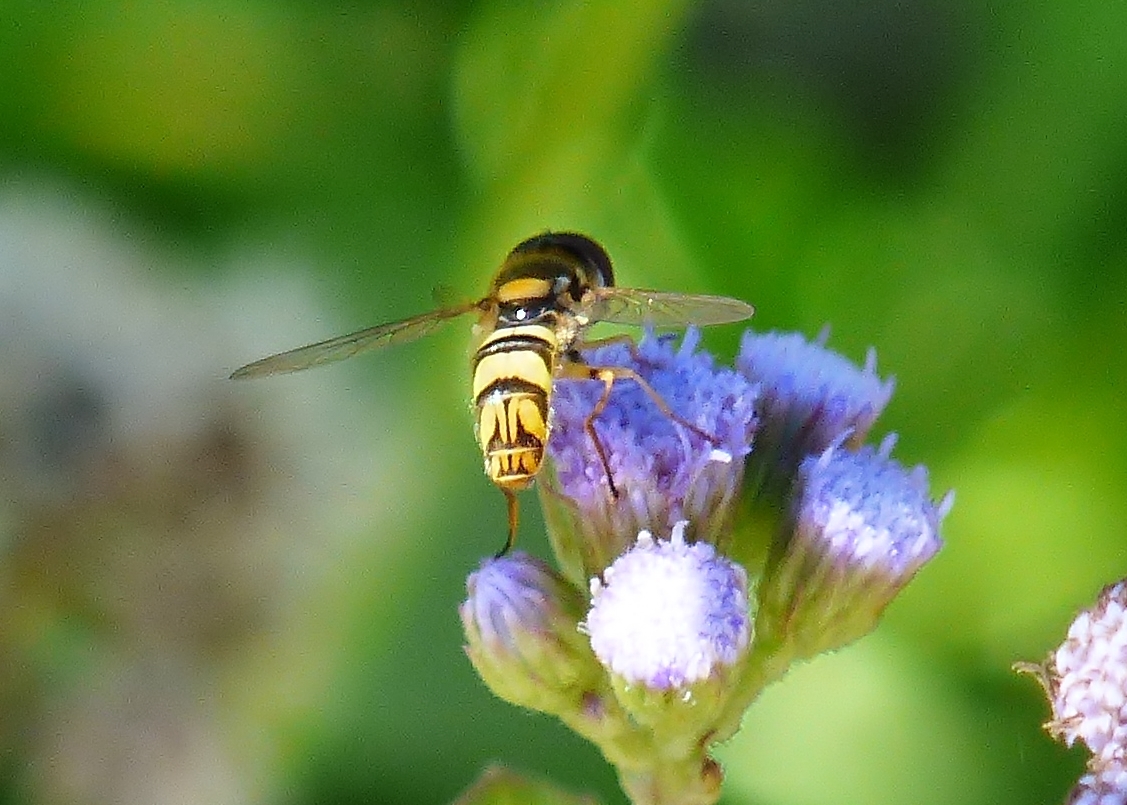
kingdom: Animalia
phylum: Arthropoda
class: Insecta
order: Diptera
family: Syrphidae
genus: Allograpta
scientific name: Allograpta exotica
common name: Syrphid fly
